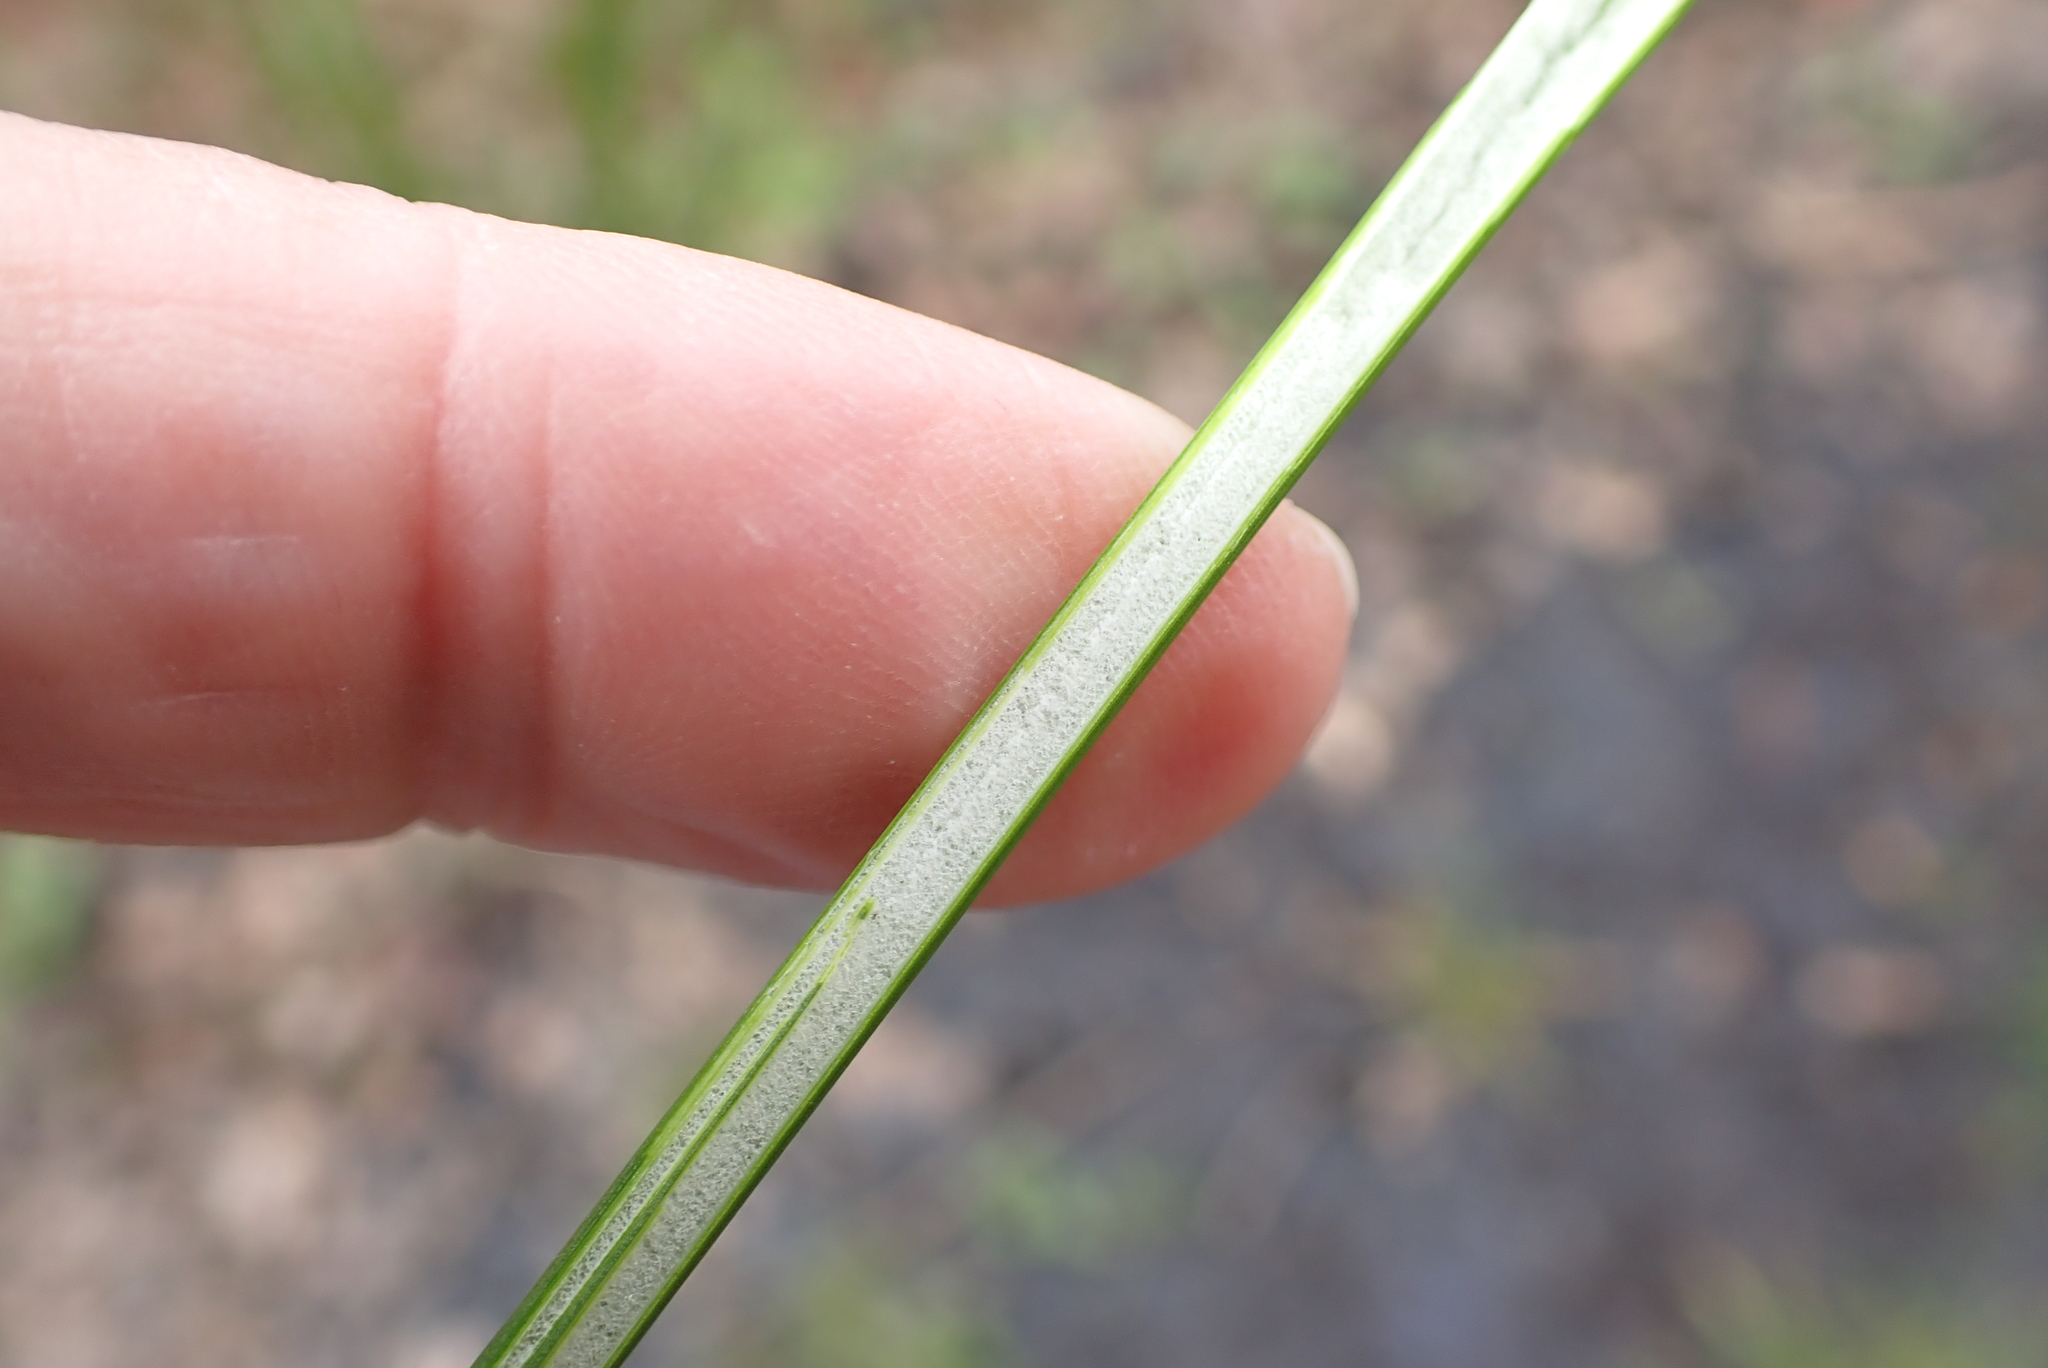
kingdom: Plantae
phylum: Tracheophyta
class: Liliopsida
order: Poales
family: Juncaceae
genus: Juncus
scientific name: Juncus effusus
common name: Soft rush
